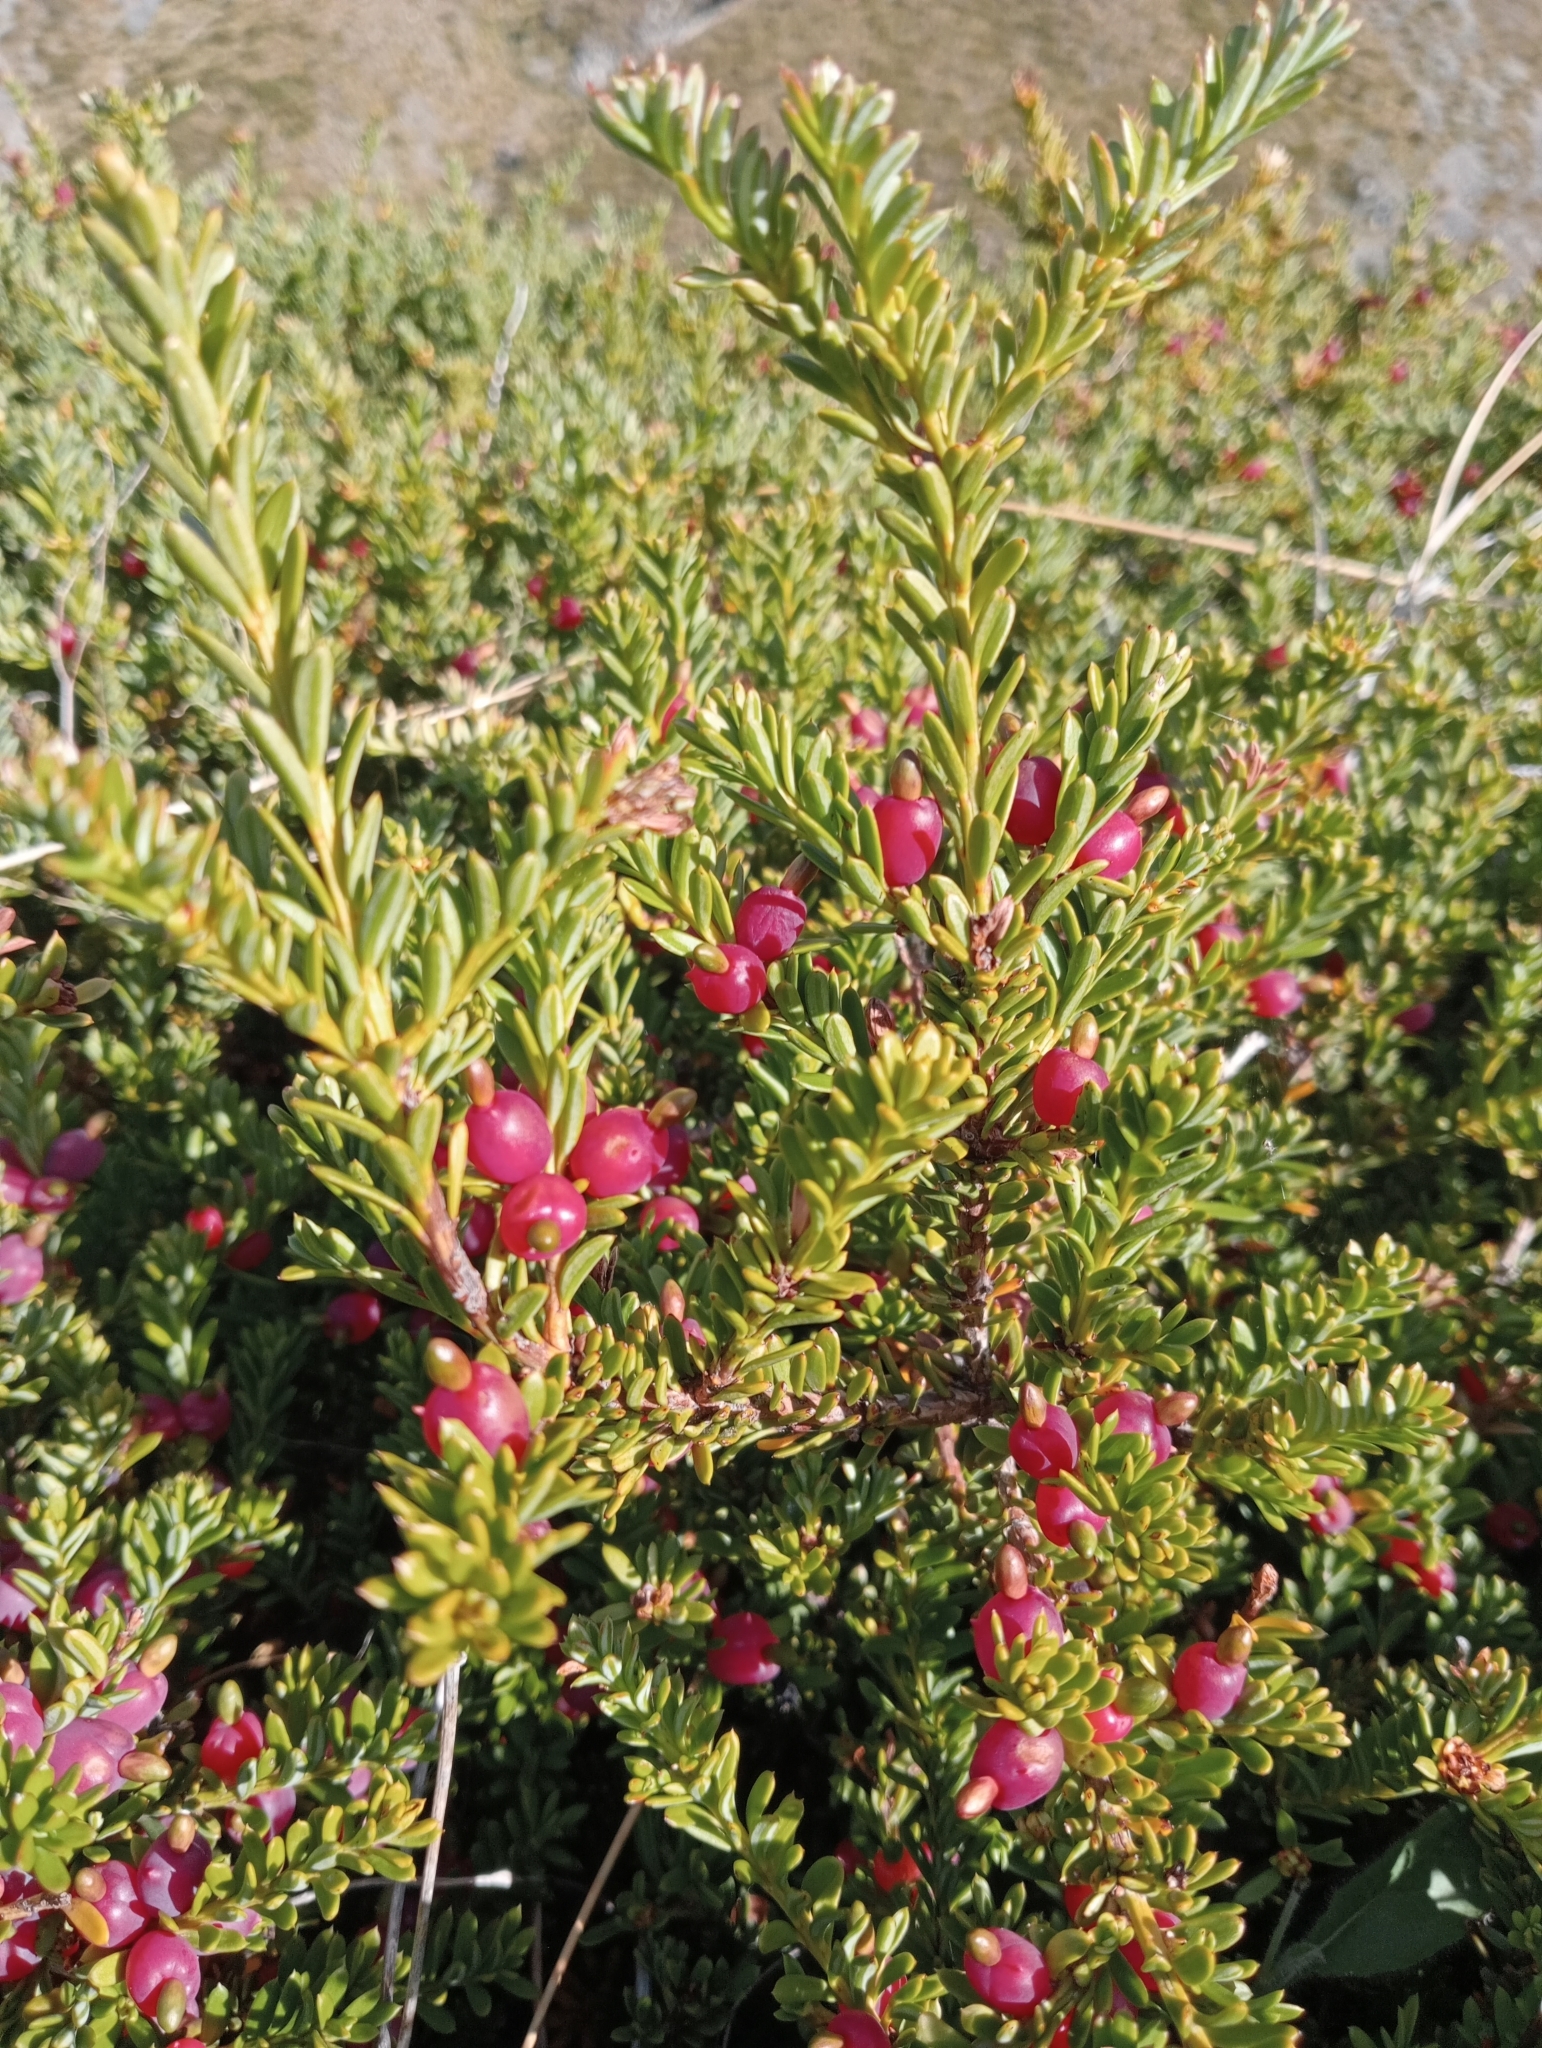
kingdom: Plantae
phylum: Tracheophyta
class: Pinopsida
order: Pinales
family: Podocarpaceae
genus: Podocarpus
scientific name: Podocarpus nivalis
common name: Alpine totara
